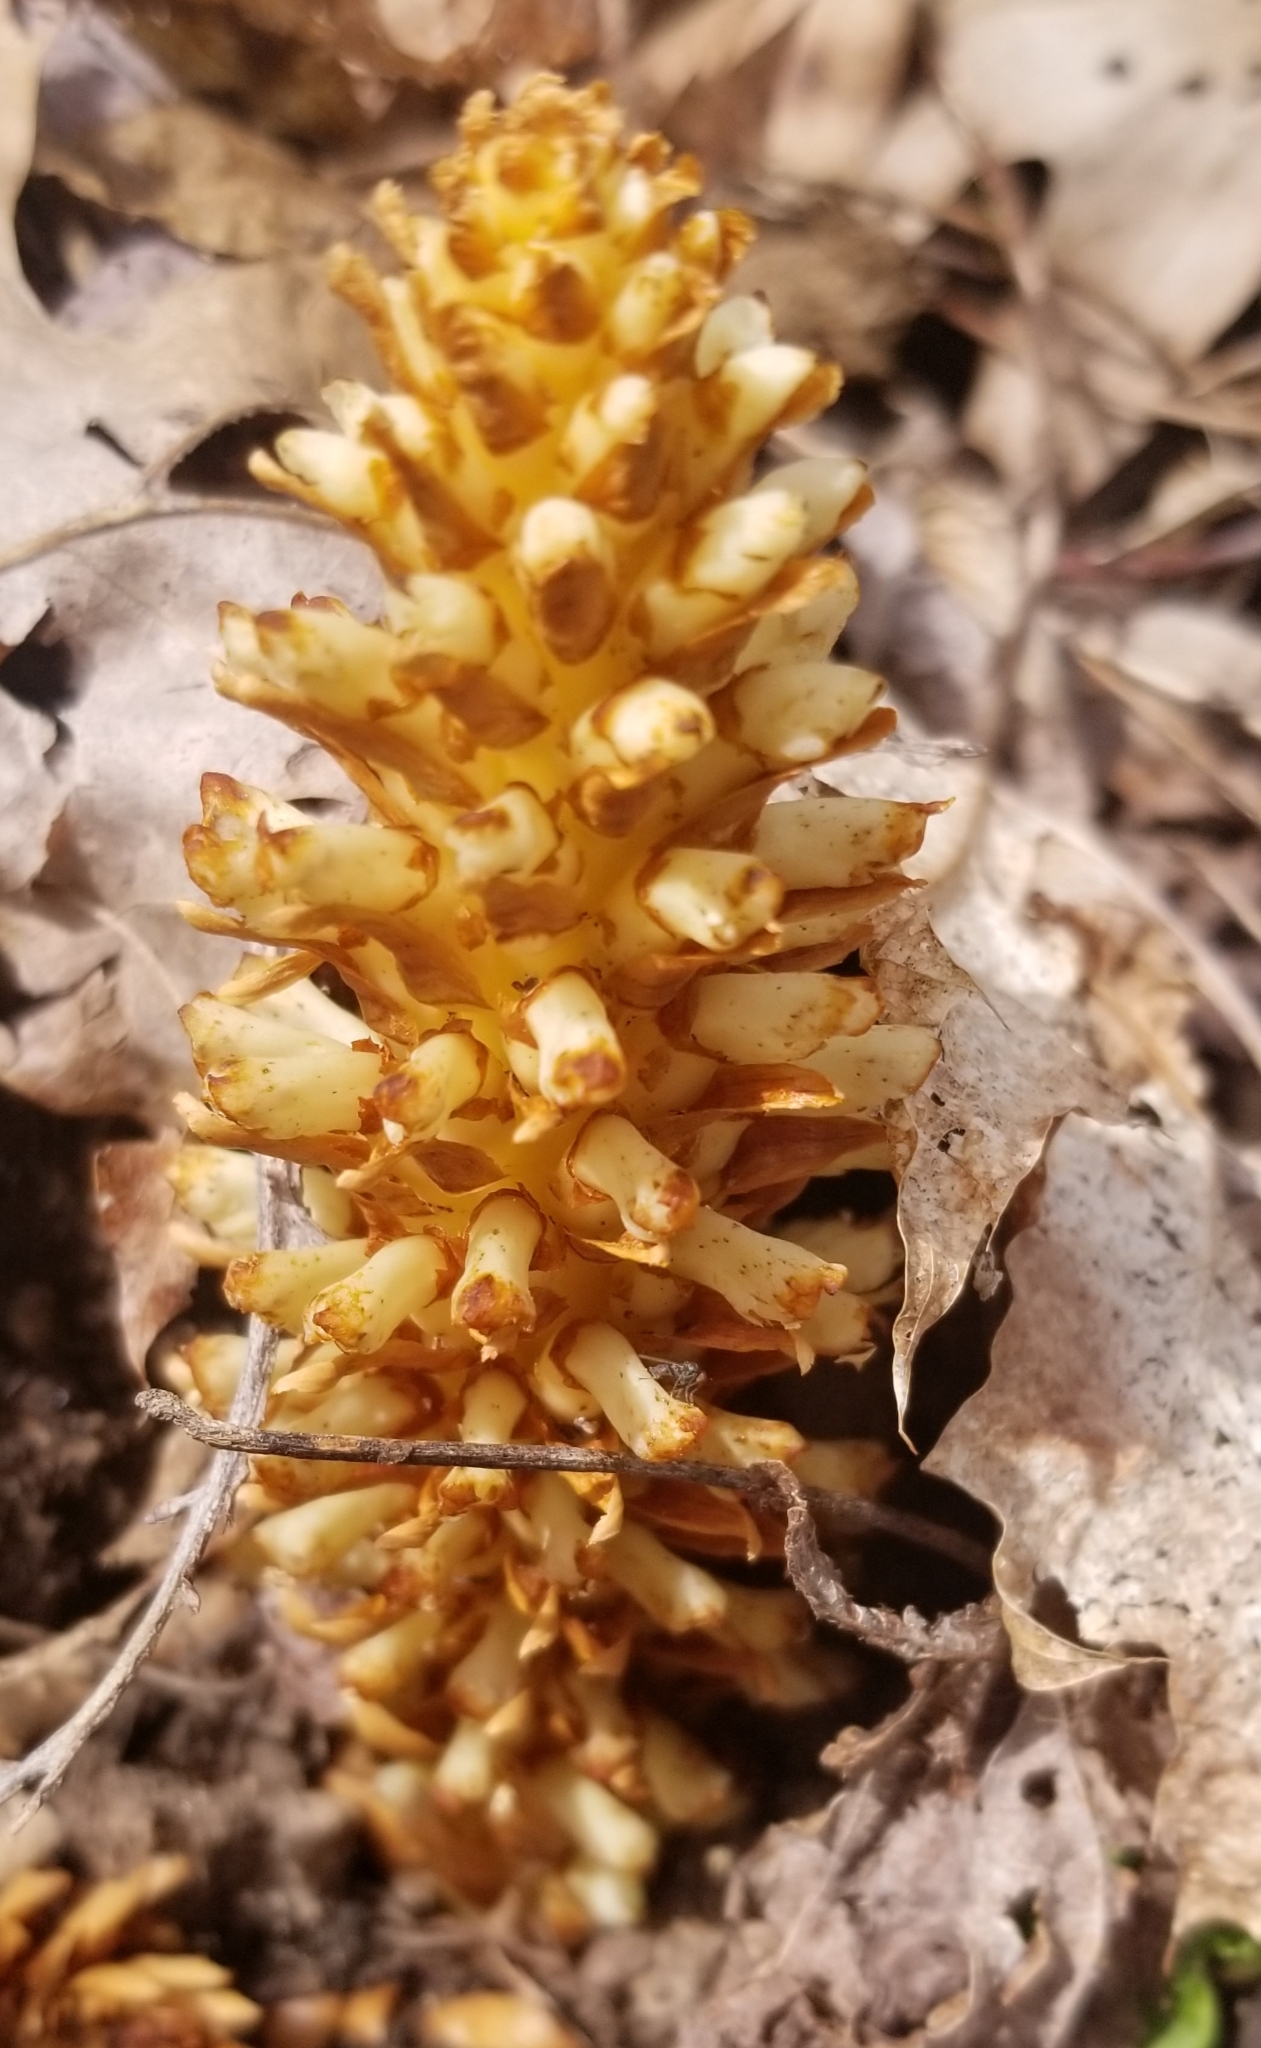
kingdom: Plantae
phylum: Tracheophyta
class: Magnoliopsida
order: Lamiales
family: Orobanchaceae
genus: Conopholis
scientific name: Conopholis americana
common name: American cancer-root
